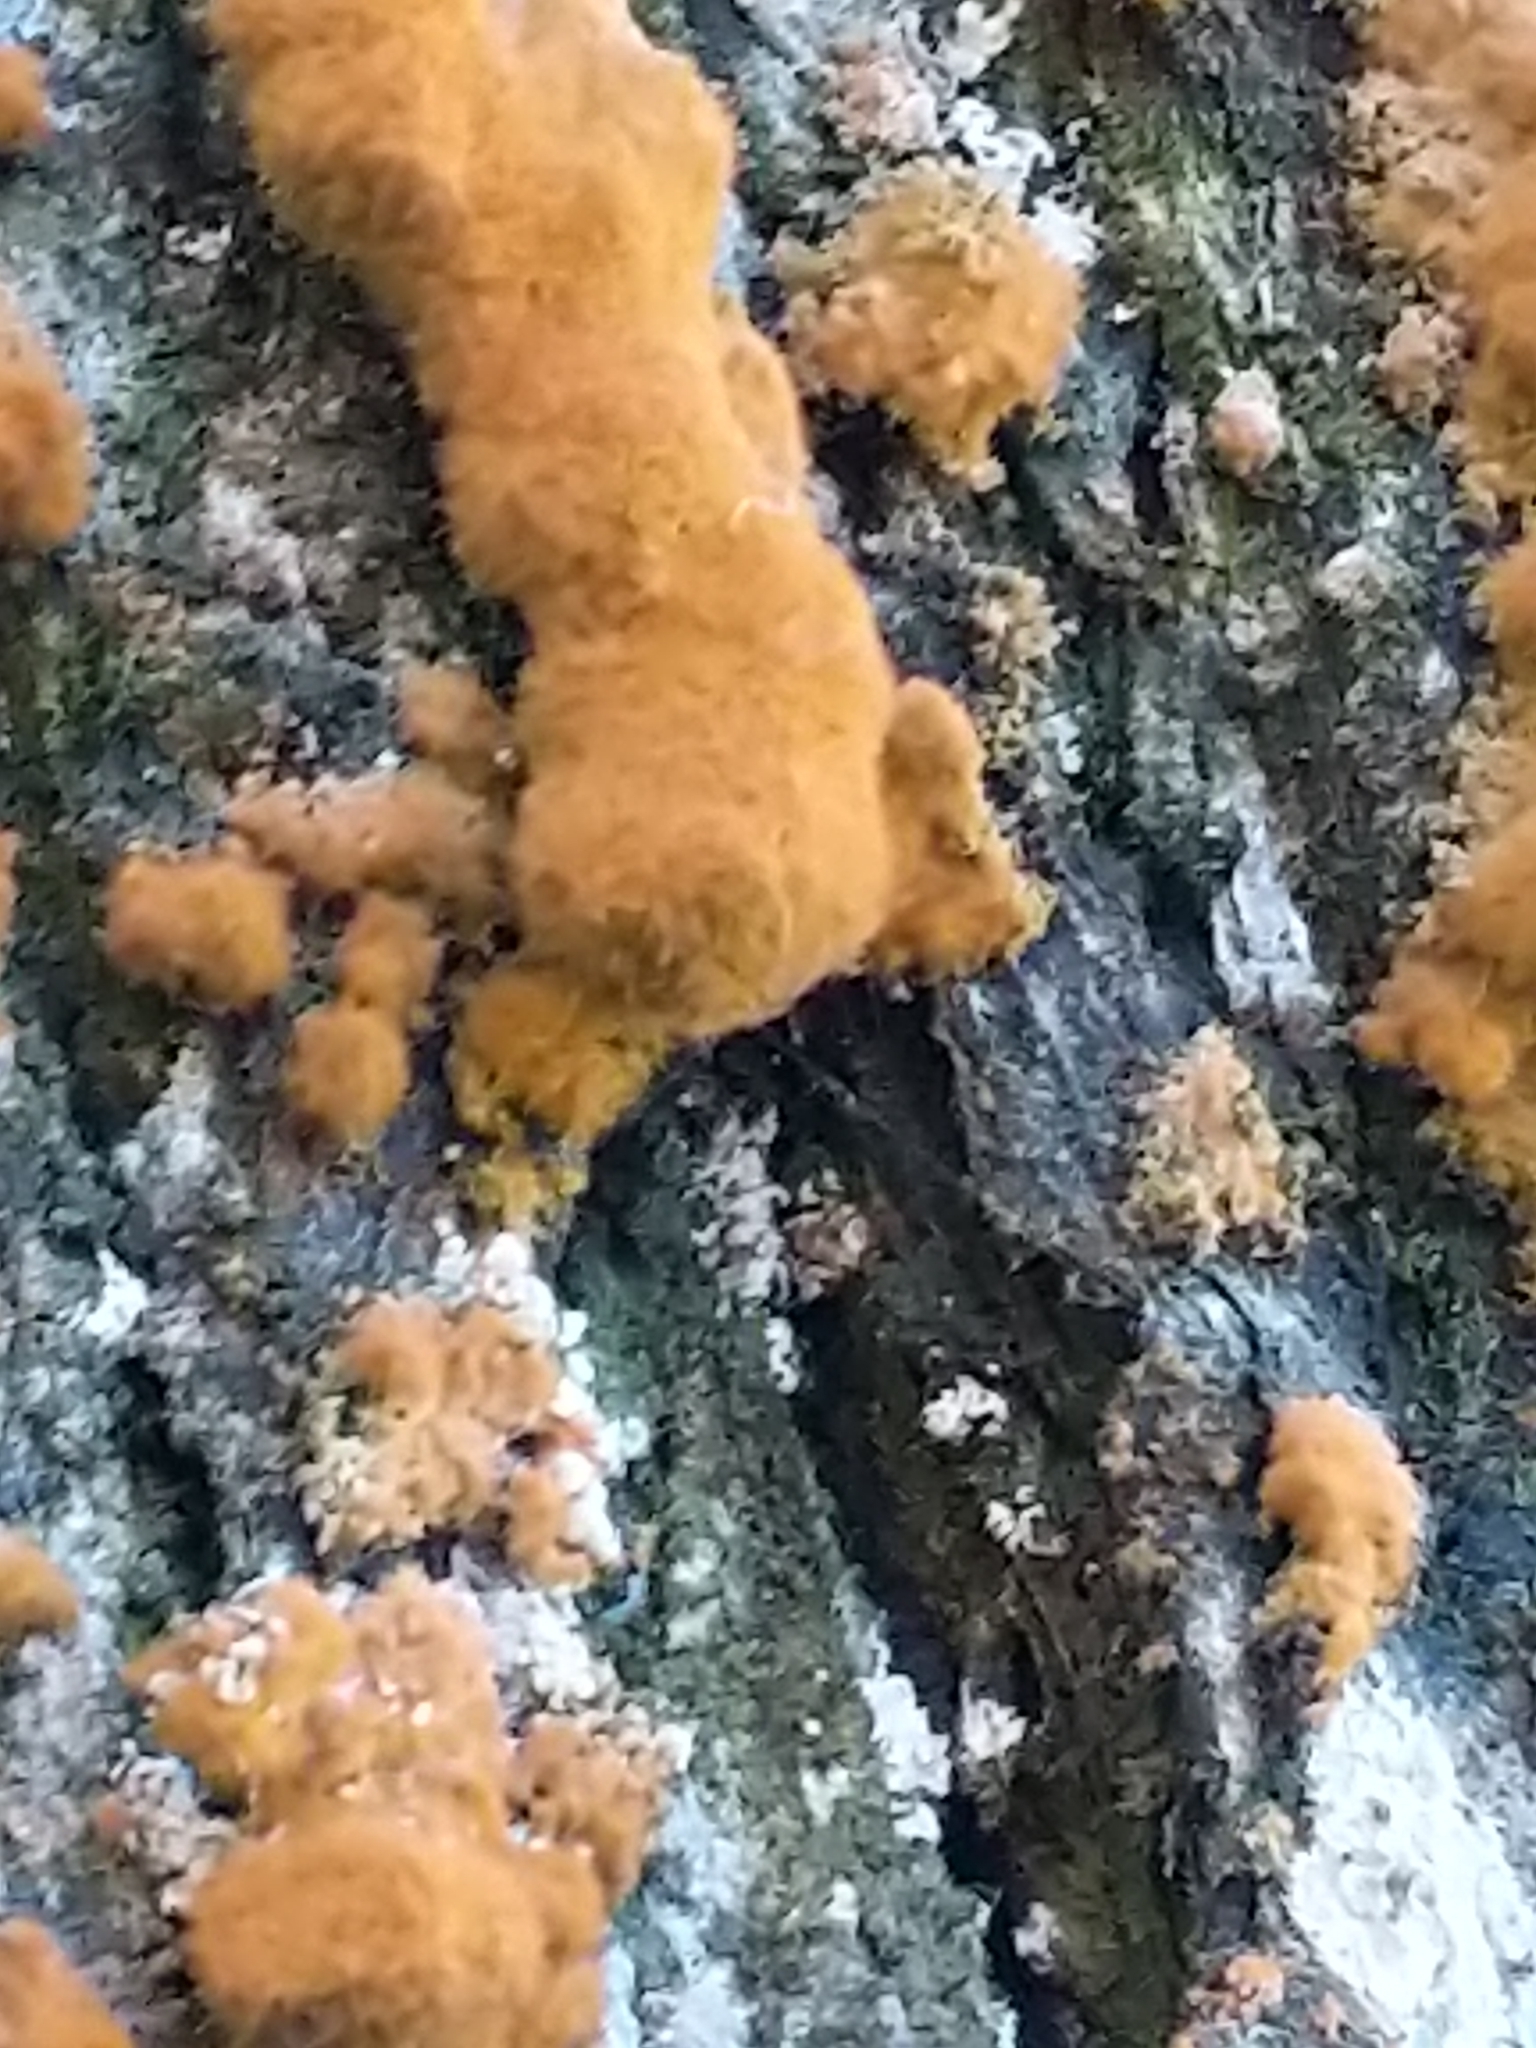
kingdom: Plantae
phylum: Chlorophyta
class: Ulvophyceae
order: Trentepohliales
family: Trentepohliaceae
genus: Trentepohlia
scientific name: Trentepohlia aurea
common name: Orange rock hair
